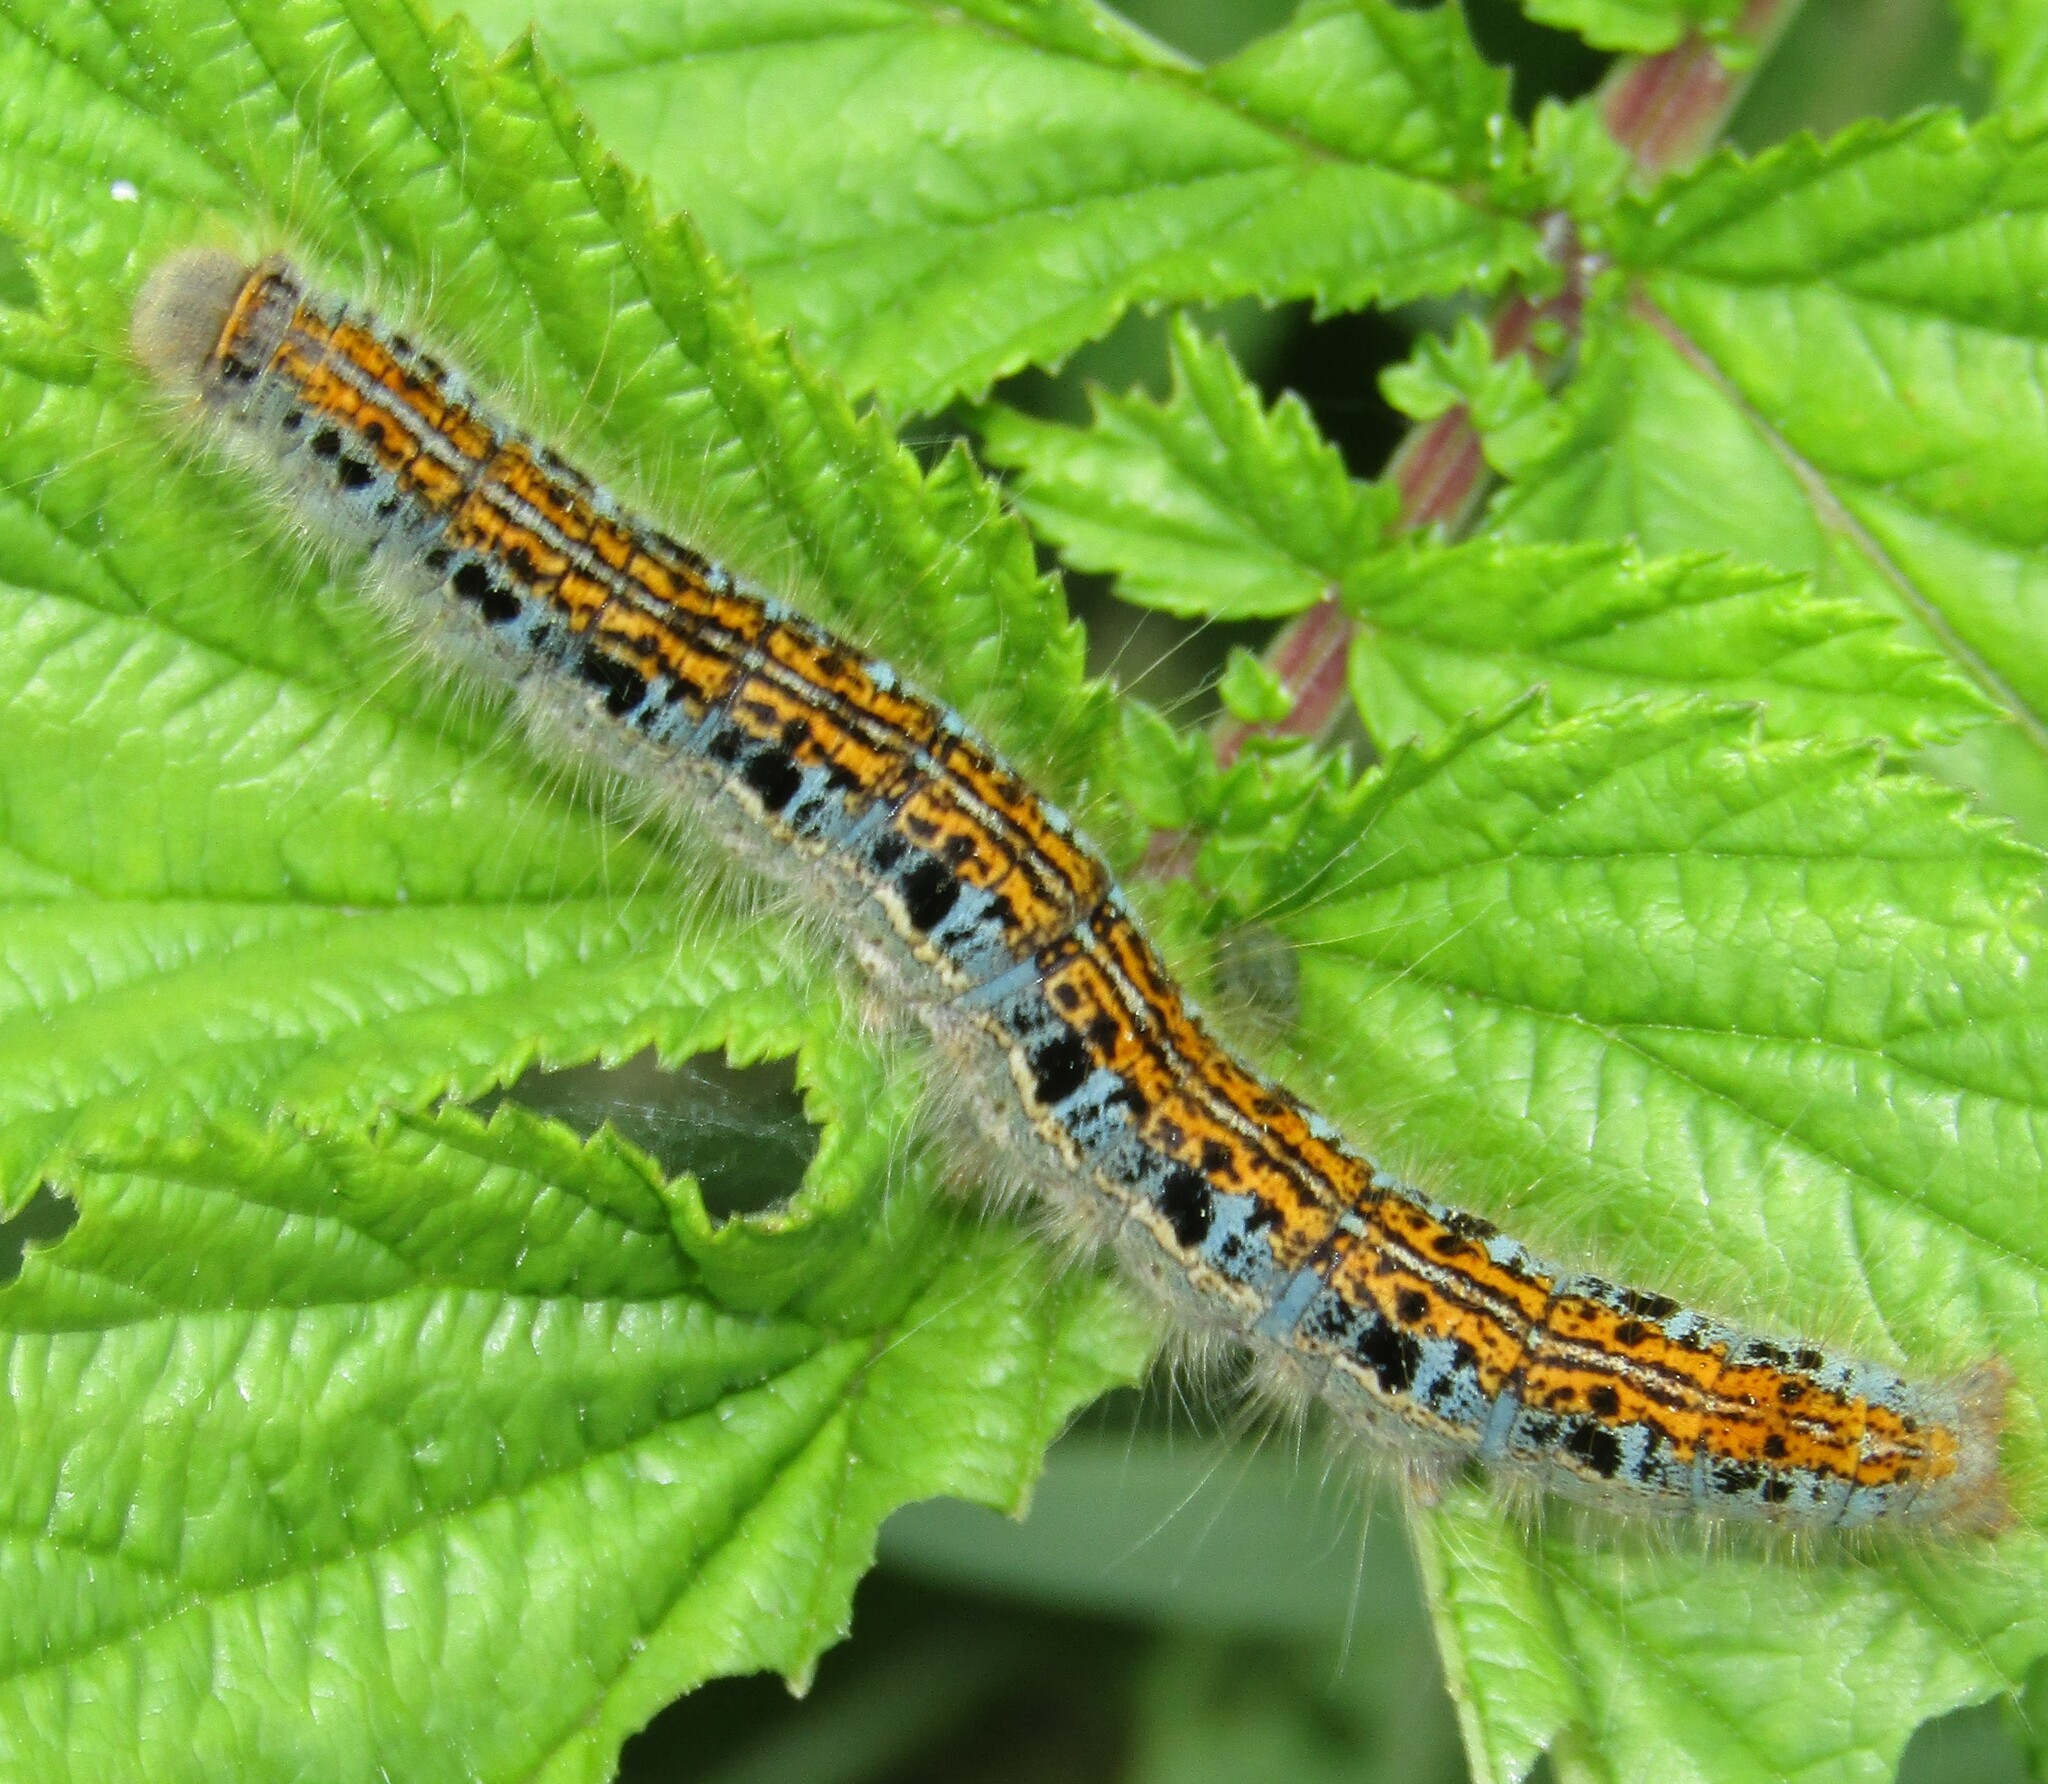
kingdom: Animalia
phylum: Arthropoda
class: Insecta
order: Lepidoptera
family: Lasiocampidae
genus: Malacosoma
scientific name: Malacosoma castrense
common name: Ground lackey
